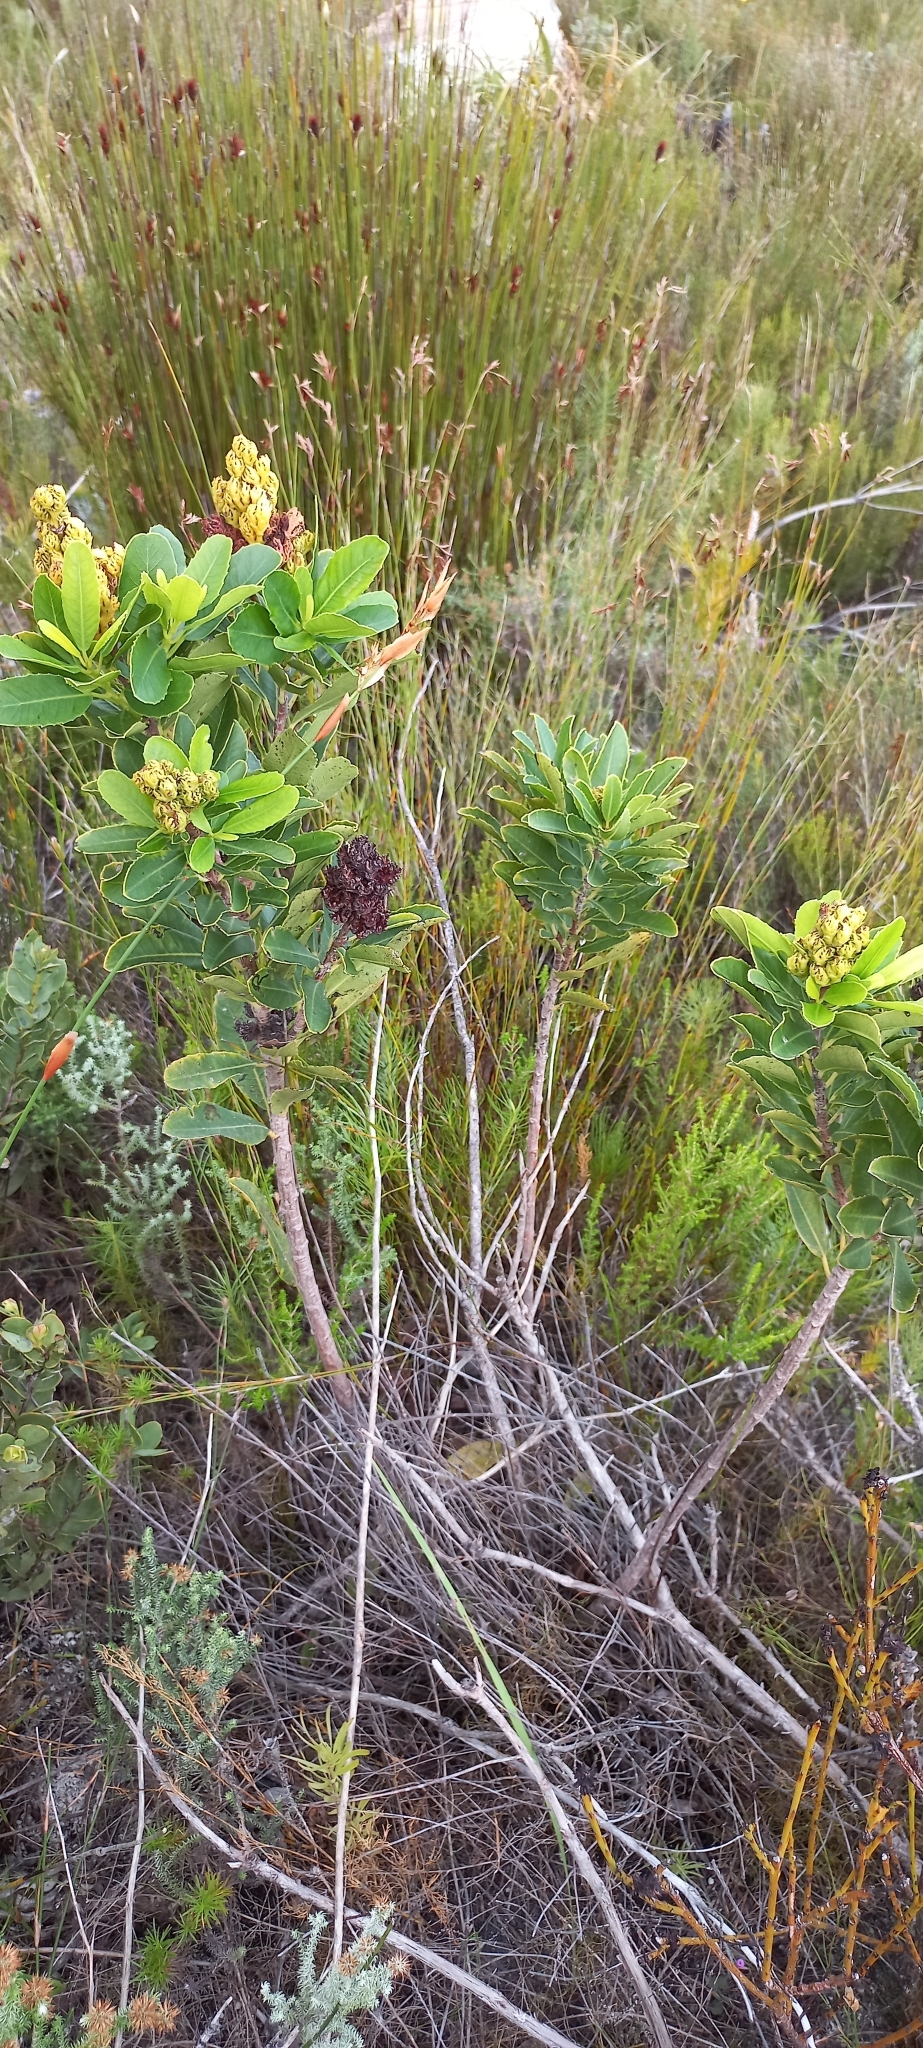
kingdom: Plantae
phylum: Tracheophyta
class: Magnoliopsida
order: Sapindales
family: Anacardiaceae
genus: Laurophyllus
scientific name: Laurophyllus capensis
